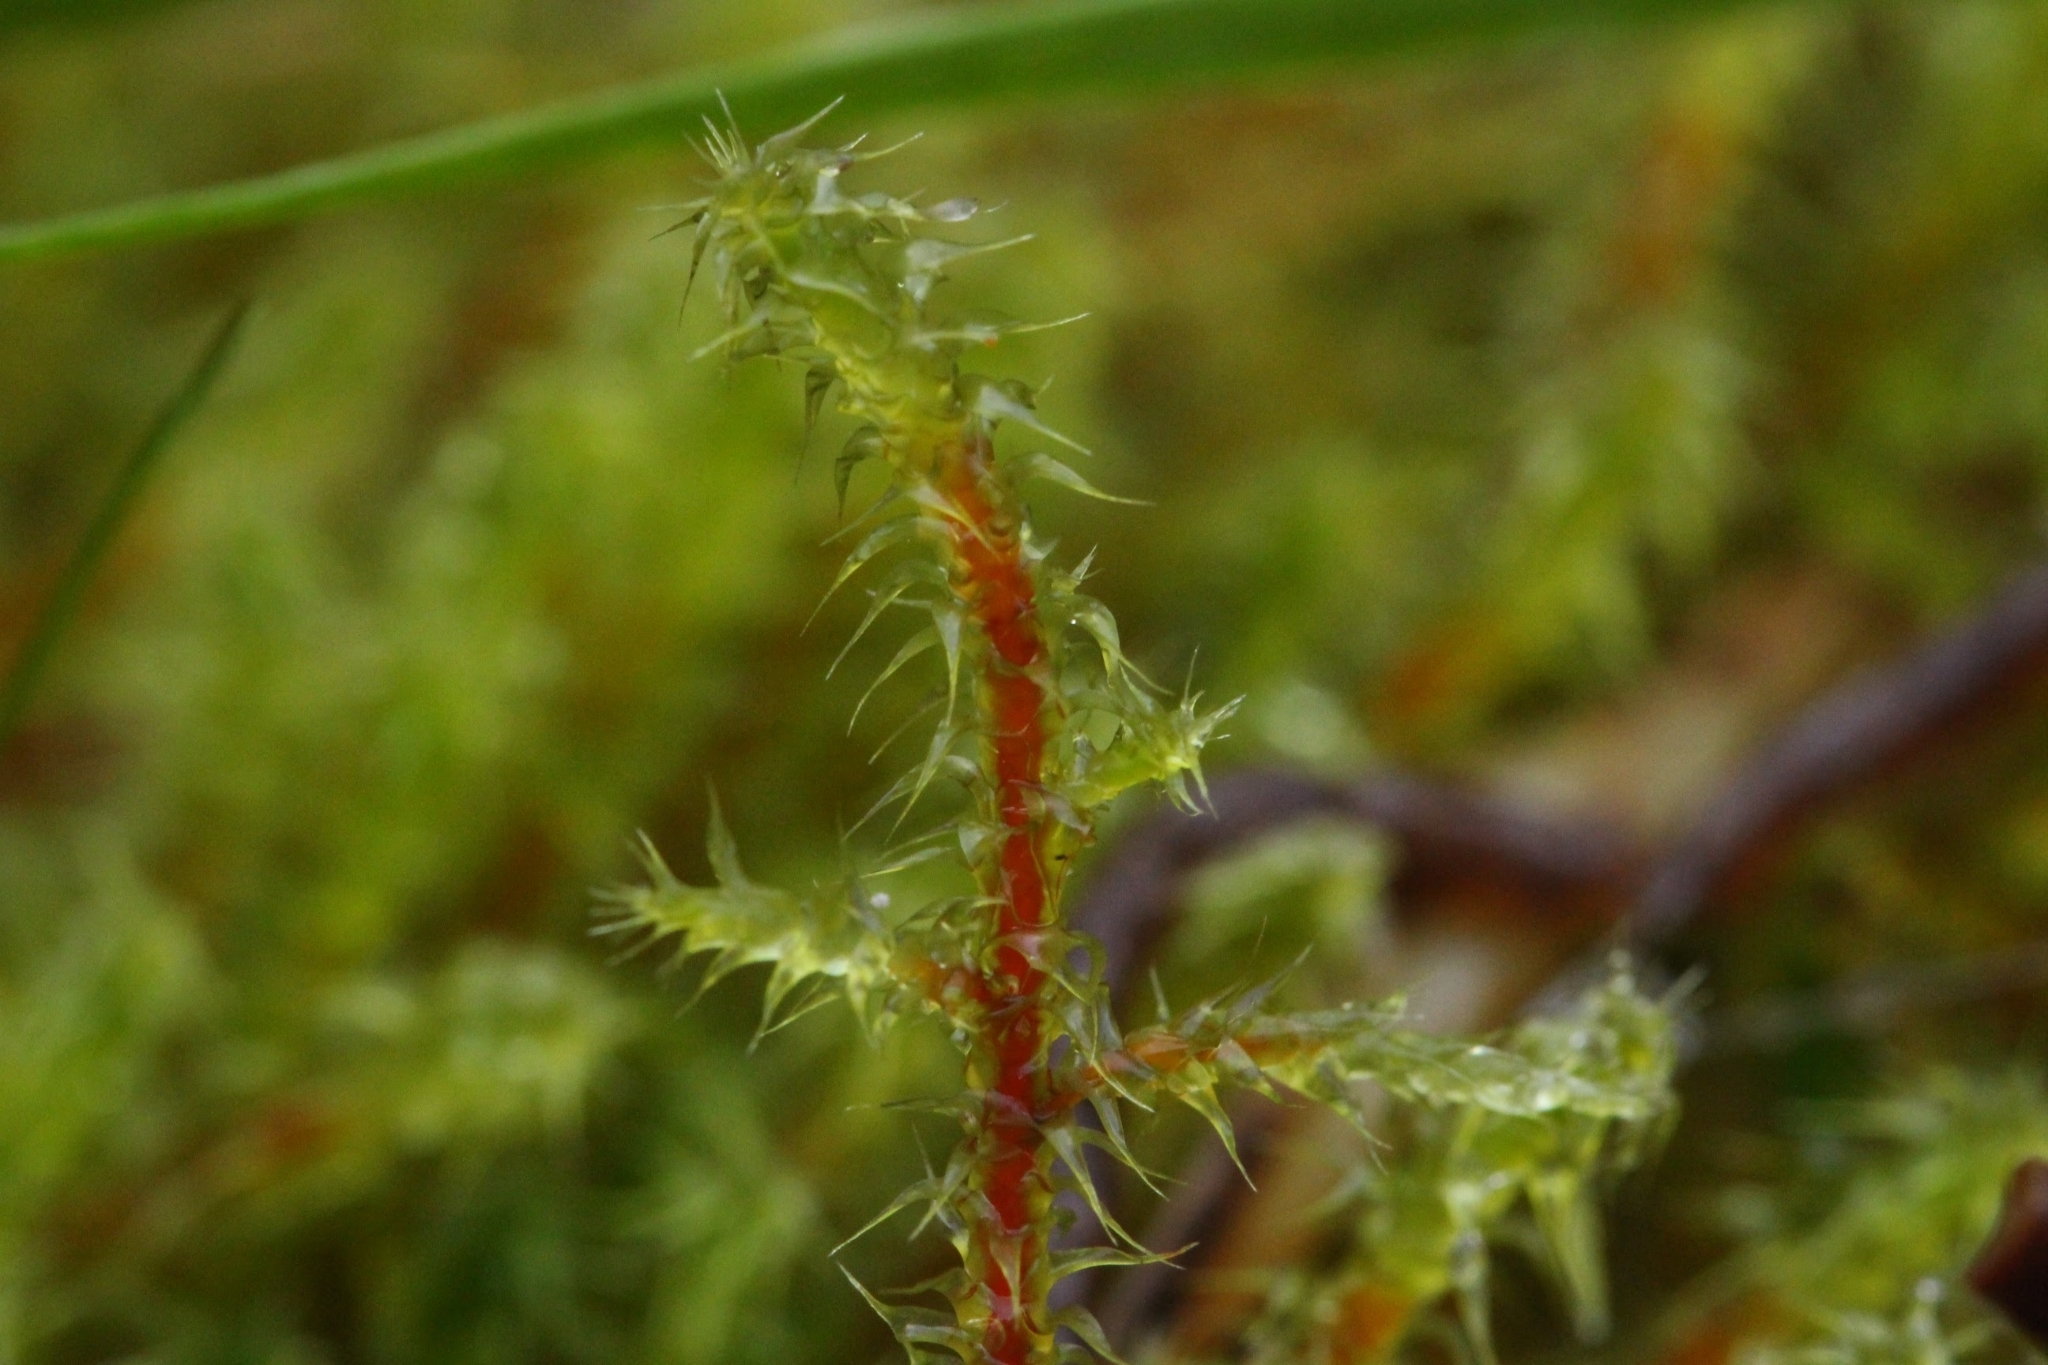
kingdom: Plantae
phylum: Bryophyta
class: Bryopsida
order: Hypnales
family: Hylocomiaceae
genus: Rhytidiadelphus
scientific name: Rhytidiadelphus squarrosus
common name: Springy turf-moss
